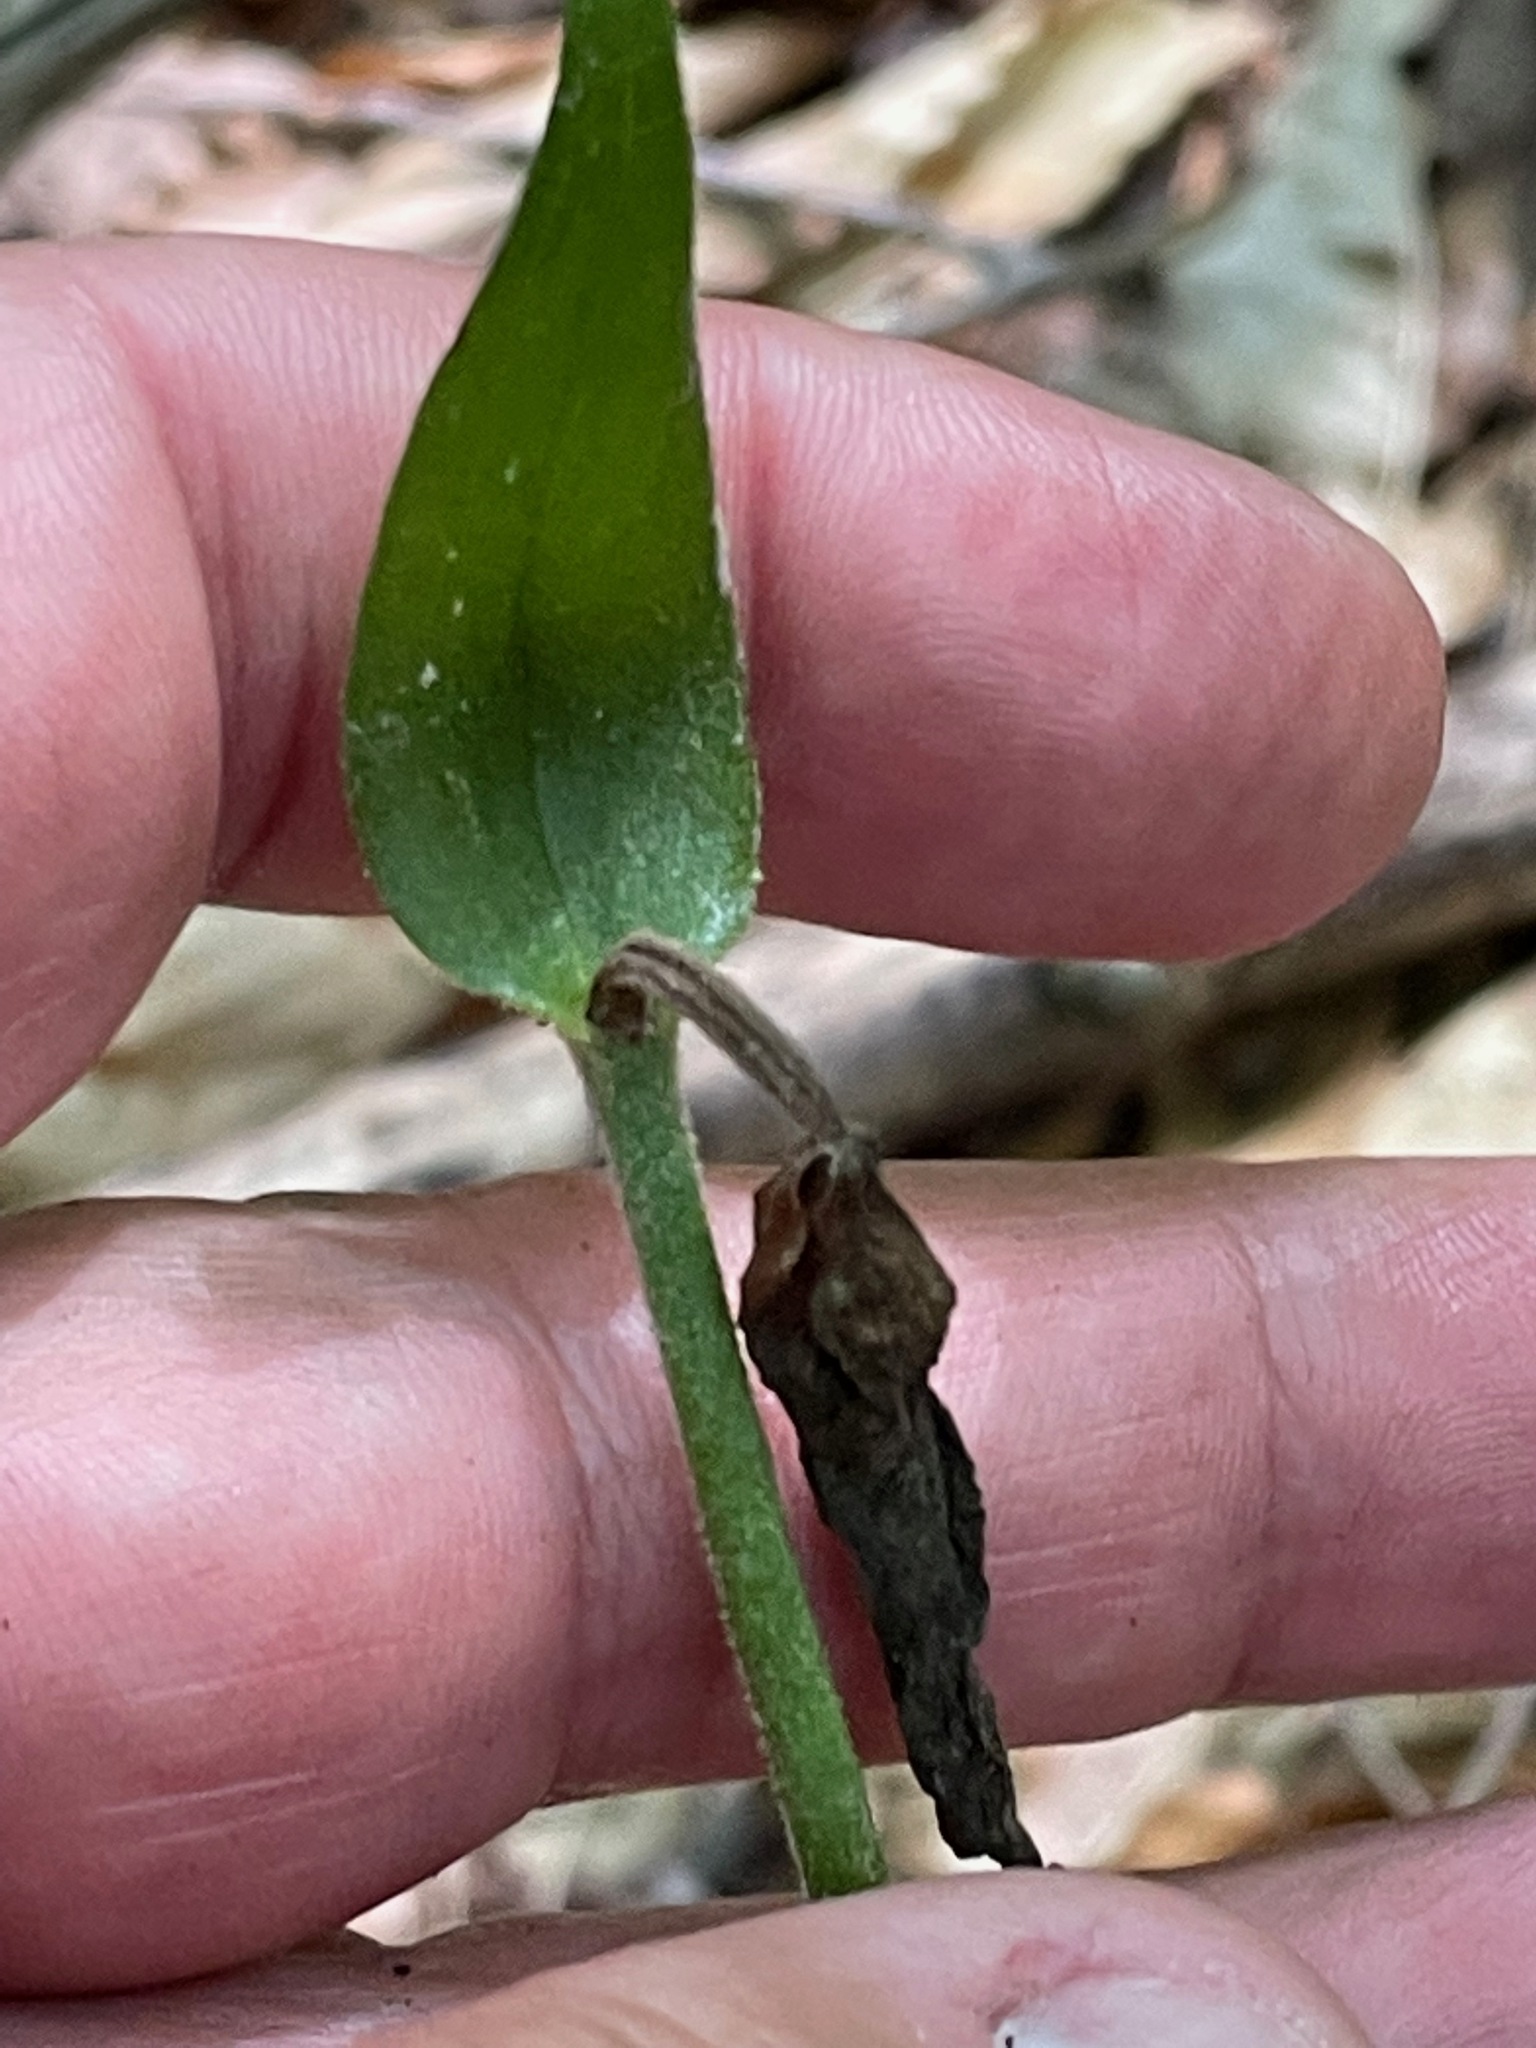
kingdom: Plantae
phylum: Tracheophyta
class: Liliopsida
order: Asparagales
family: Orchidaceae
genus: Cypripedium
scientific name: Cypripedium acaule
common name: Pink lady's-slipper
